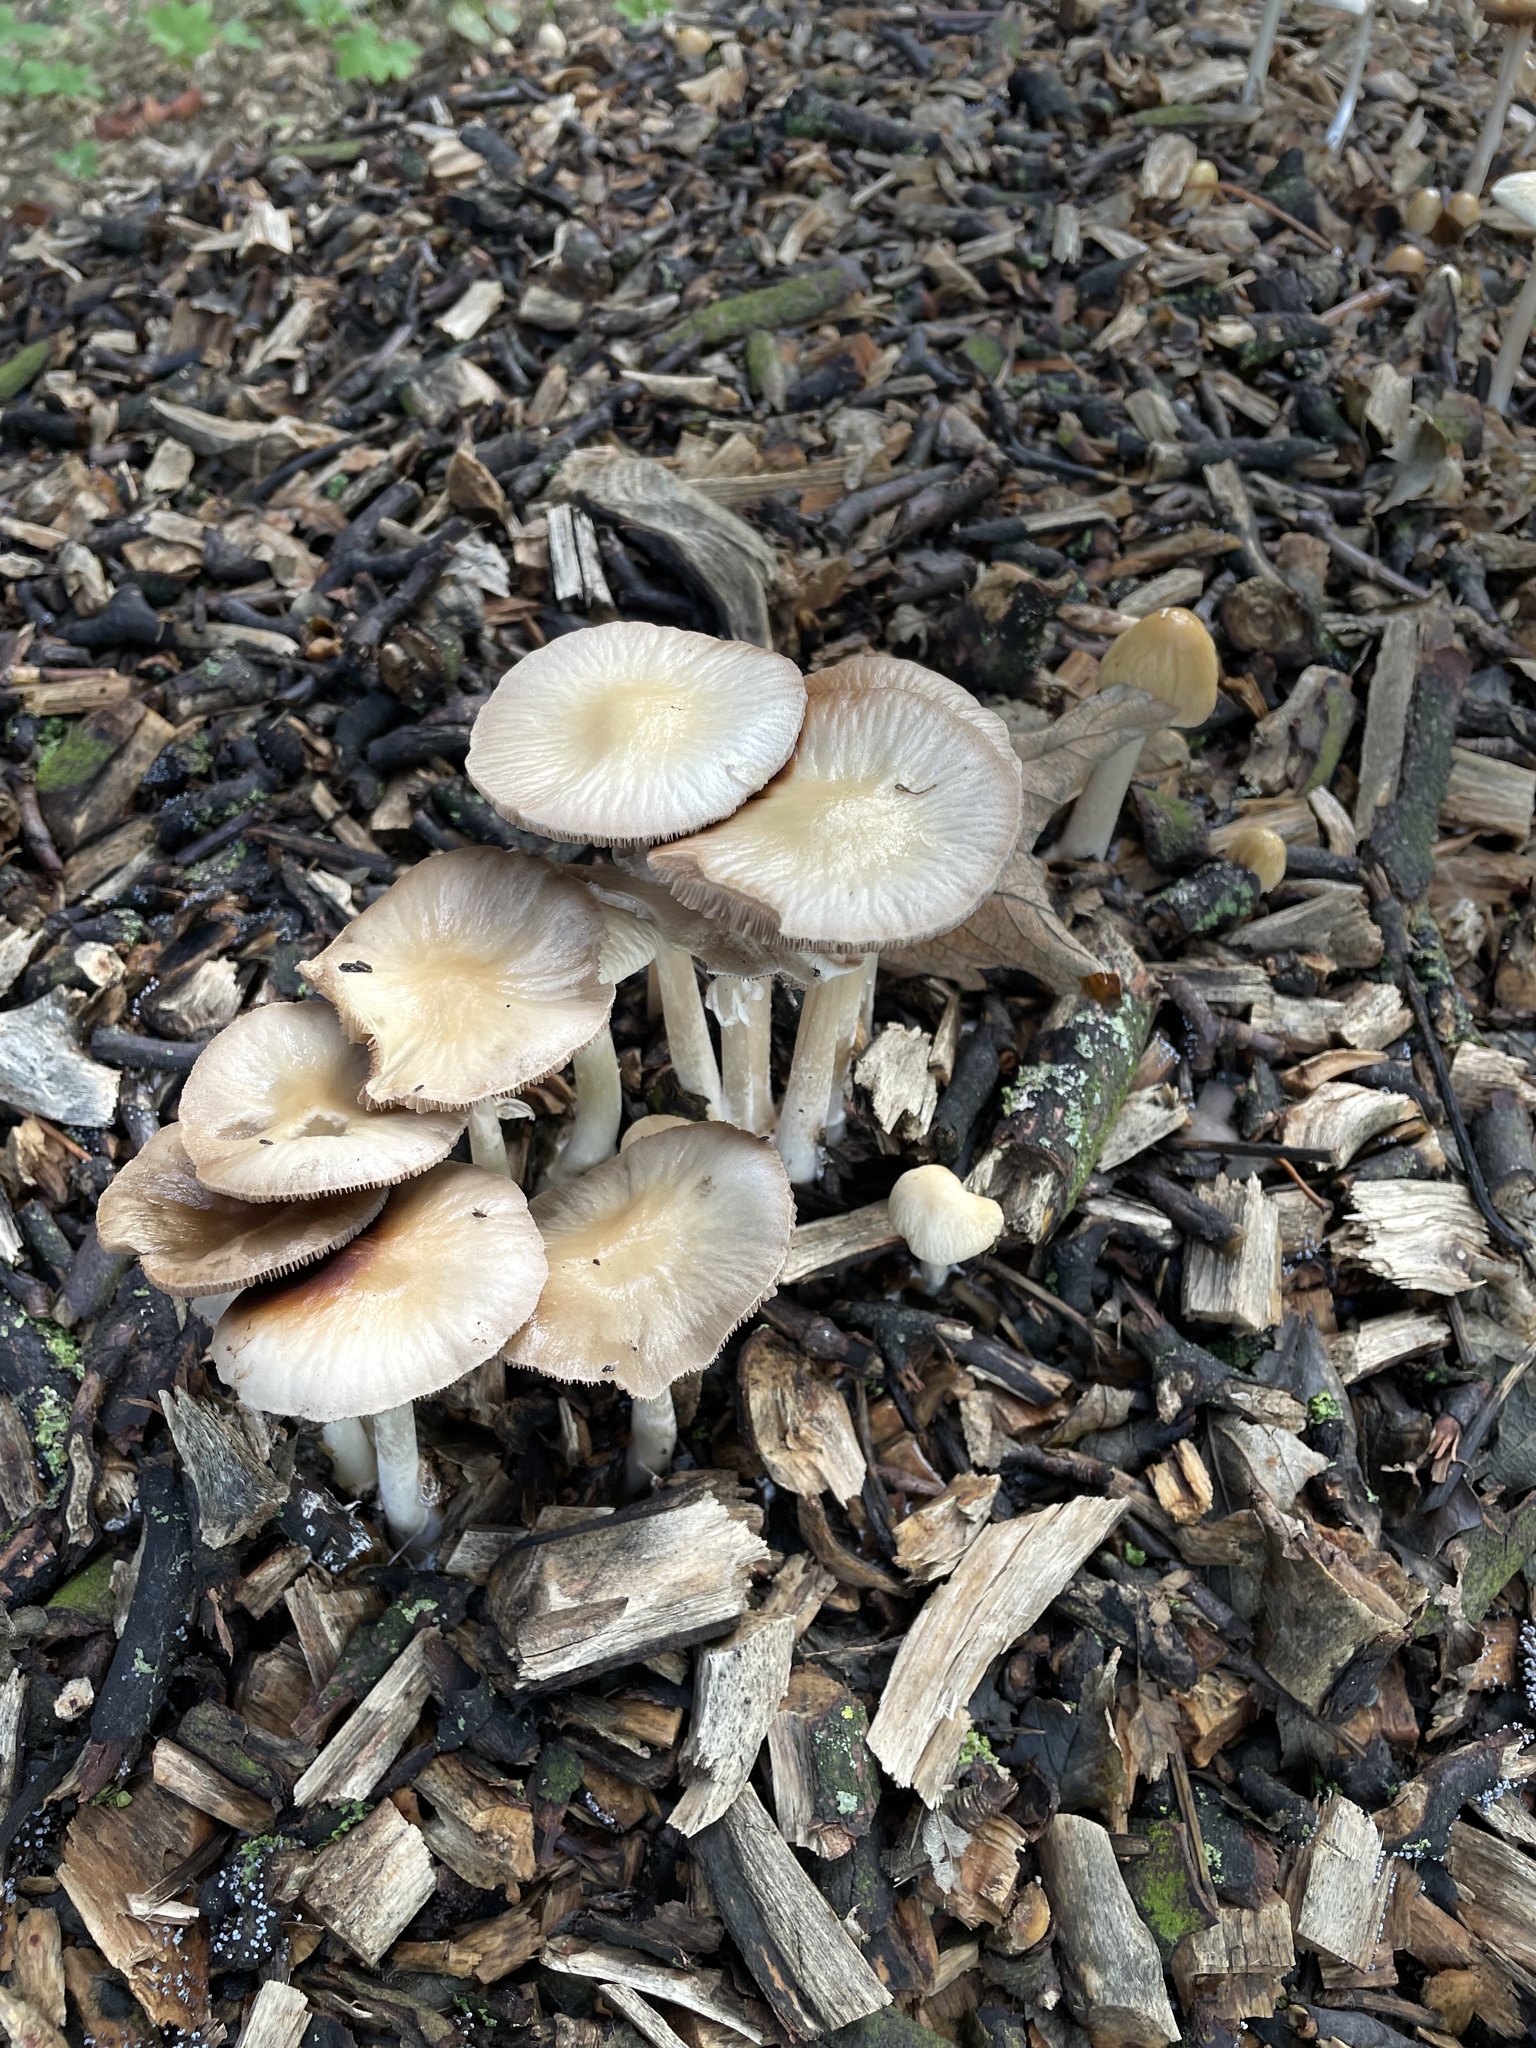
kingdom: Fungi
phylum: Basidiomycota
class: Agaricomycetes
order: Agaricales
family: Strophariaceae
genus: Agrocybe
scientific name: Agrocybe rivulosa
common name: Wrinkled fieldcap
